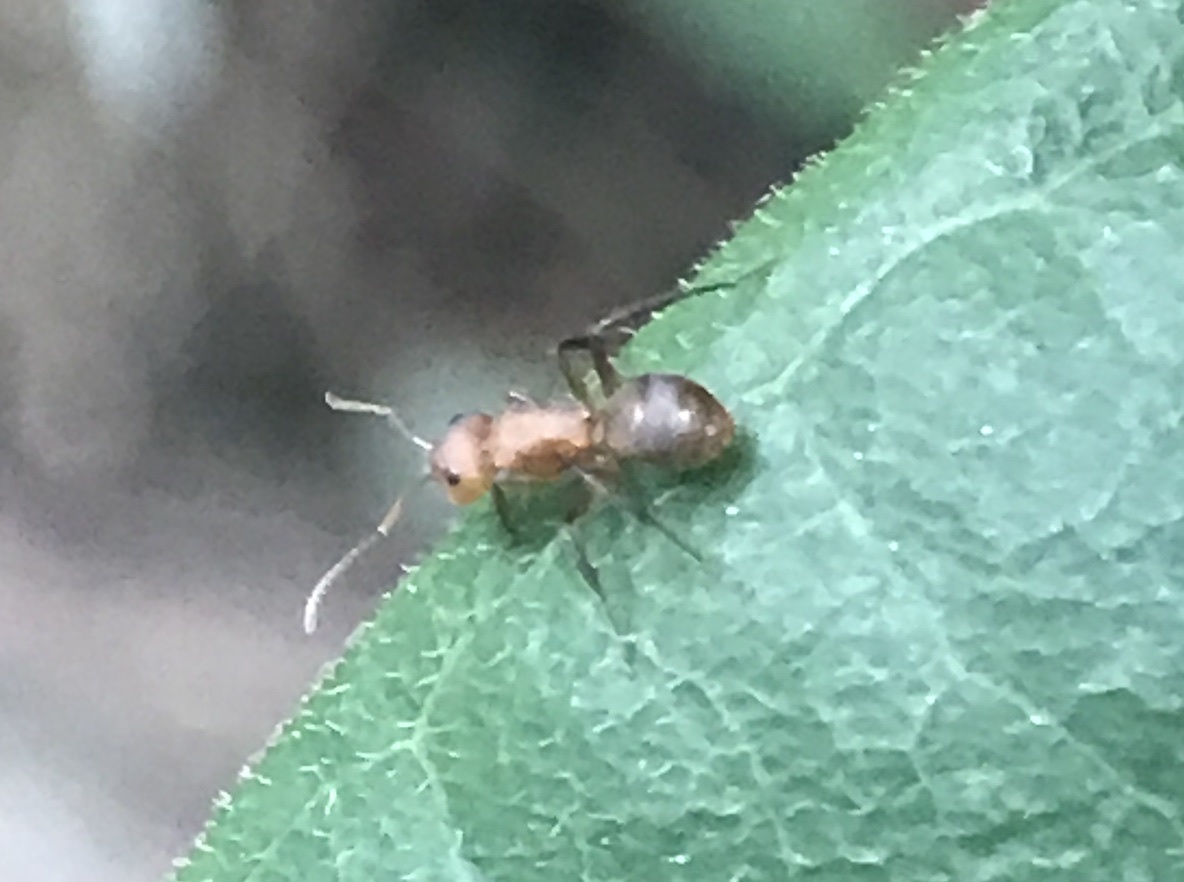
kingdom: Animalia
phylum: Arthropoda
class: Insecta
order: Hymenoptera
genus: Myrmocladoecus
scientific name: Myrmocladoecus
